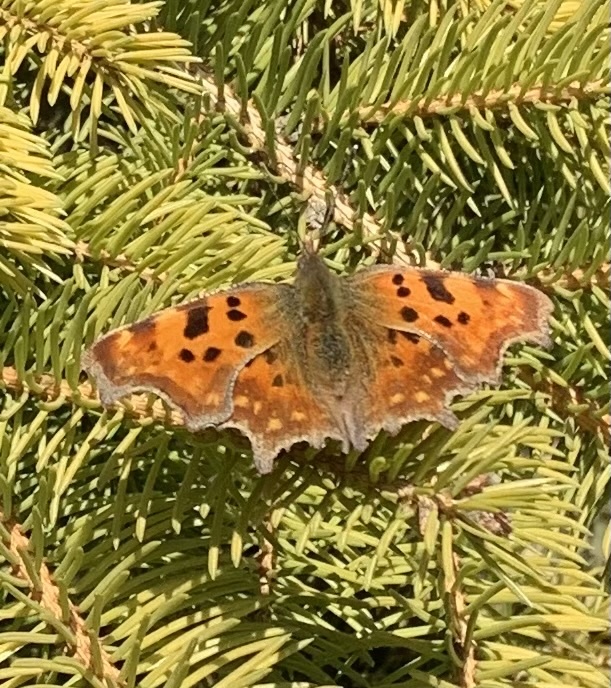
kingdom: Animalia
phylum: Arthropoda
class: Insecta
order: Lepidoptera
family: Nymphalidae
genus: Polygonia
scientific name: Polygonia c-album
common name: Comma
